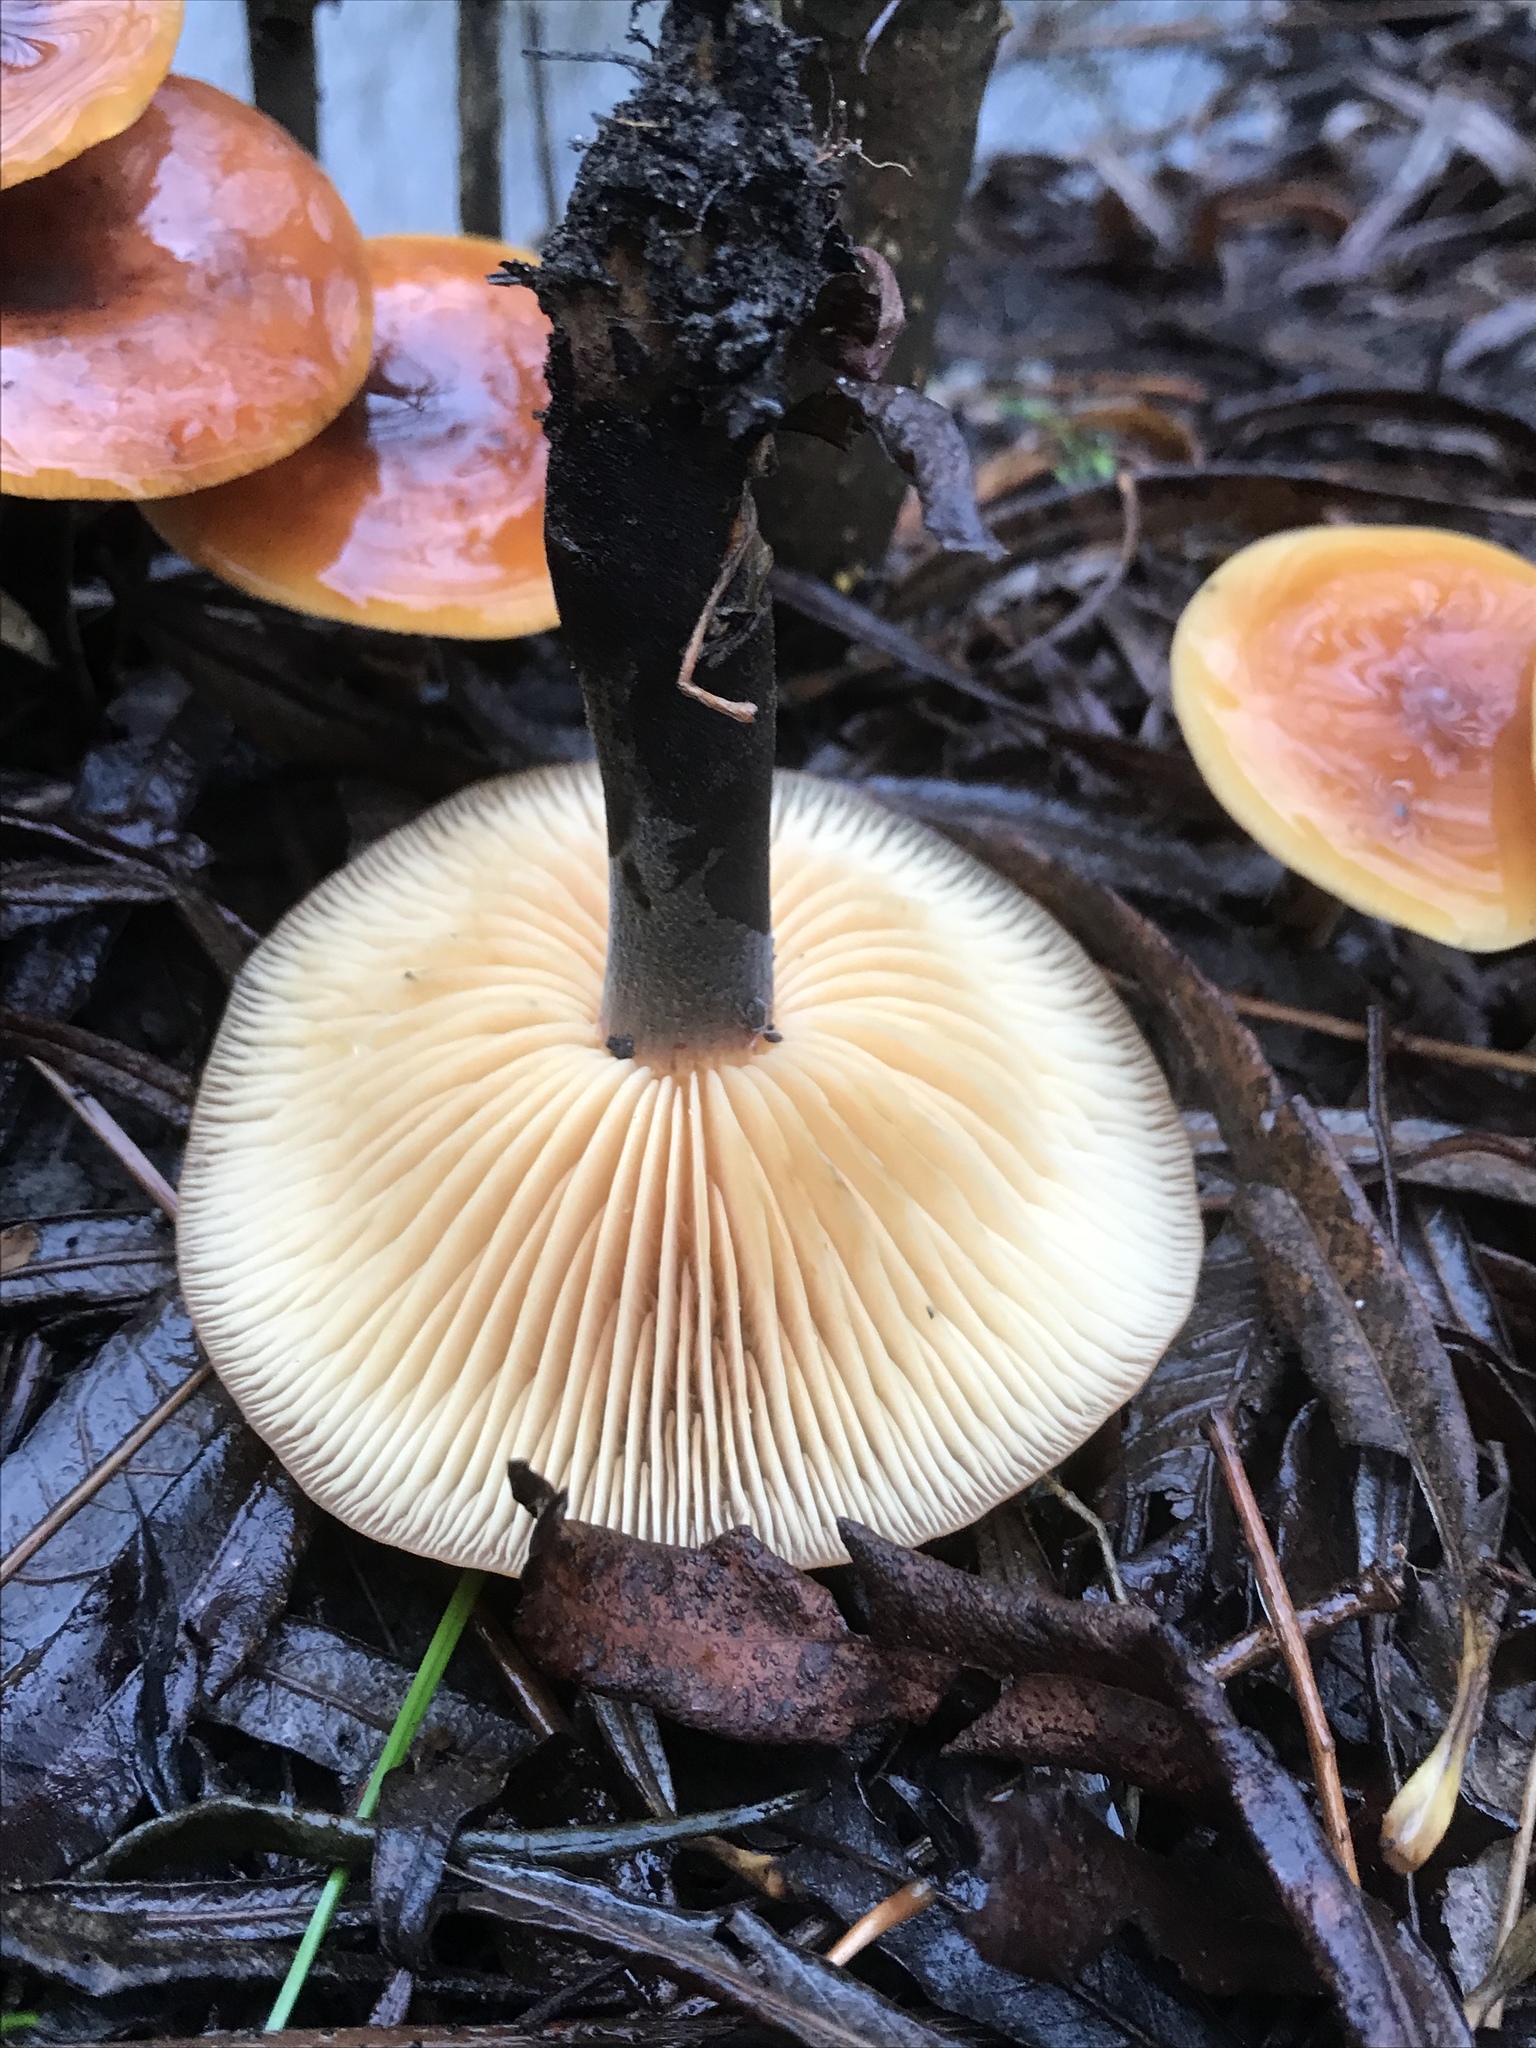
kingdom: Fungi
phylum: Basidiomycota
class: Agaricomycetes
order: Agaricales
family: Physalacriaceae
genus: Flammulina
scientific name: Flammulina
